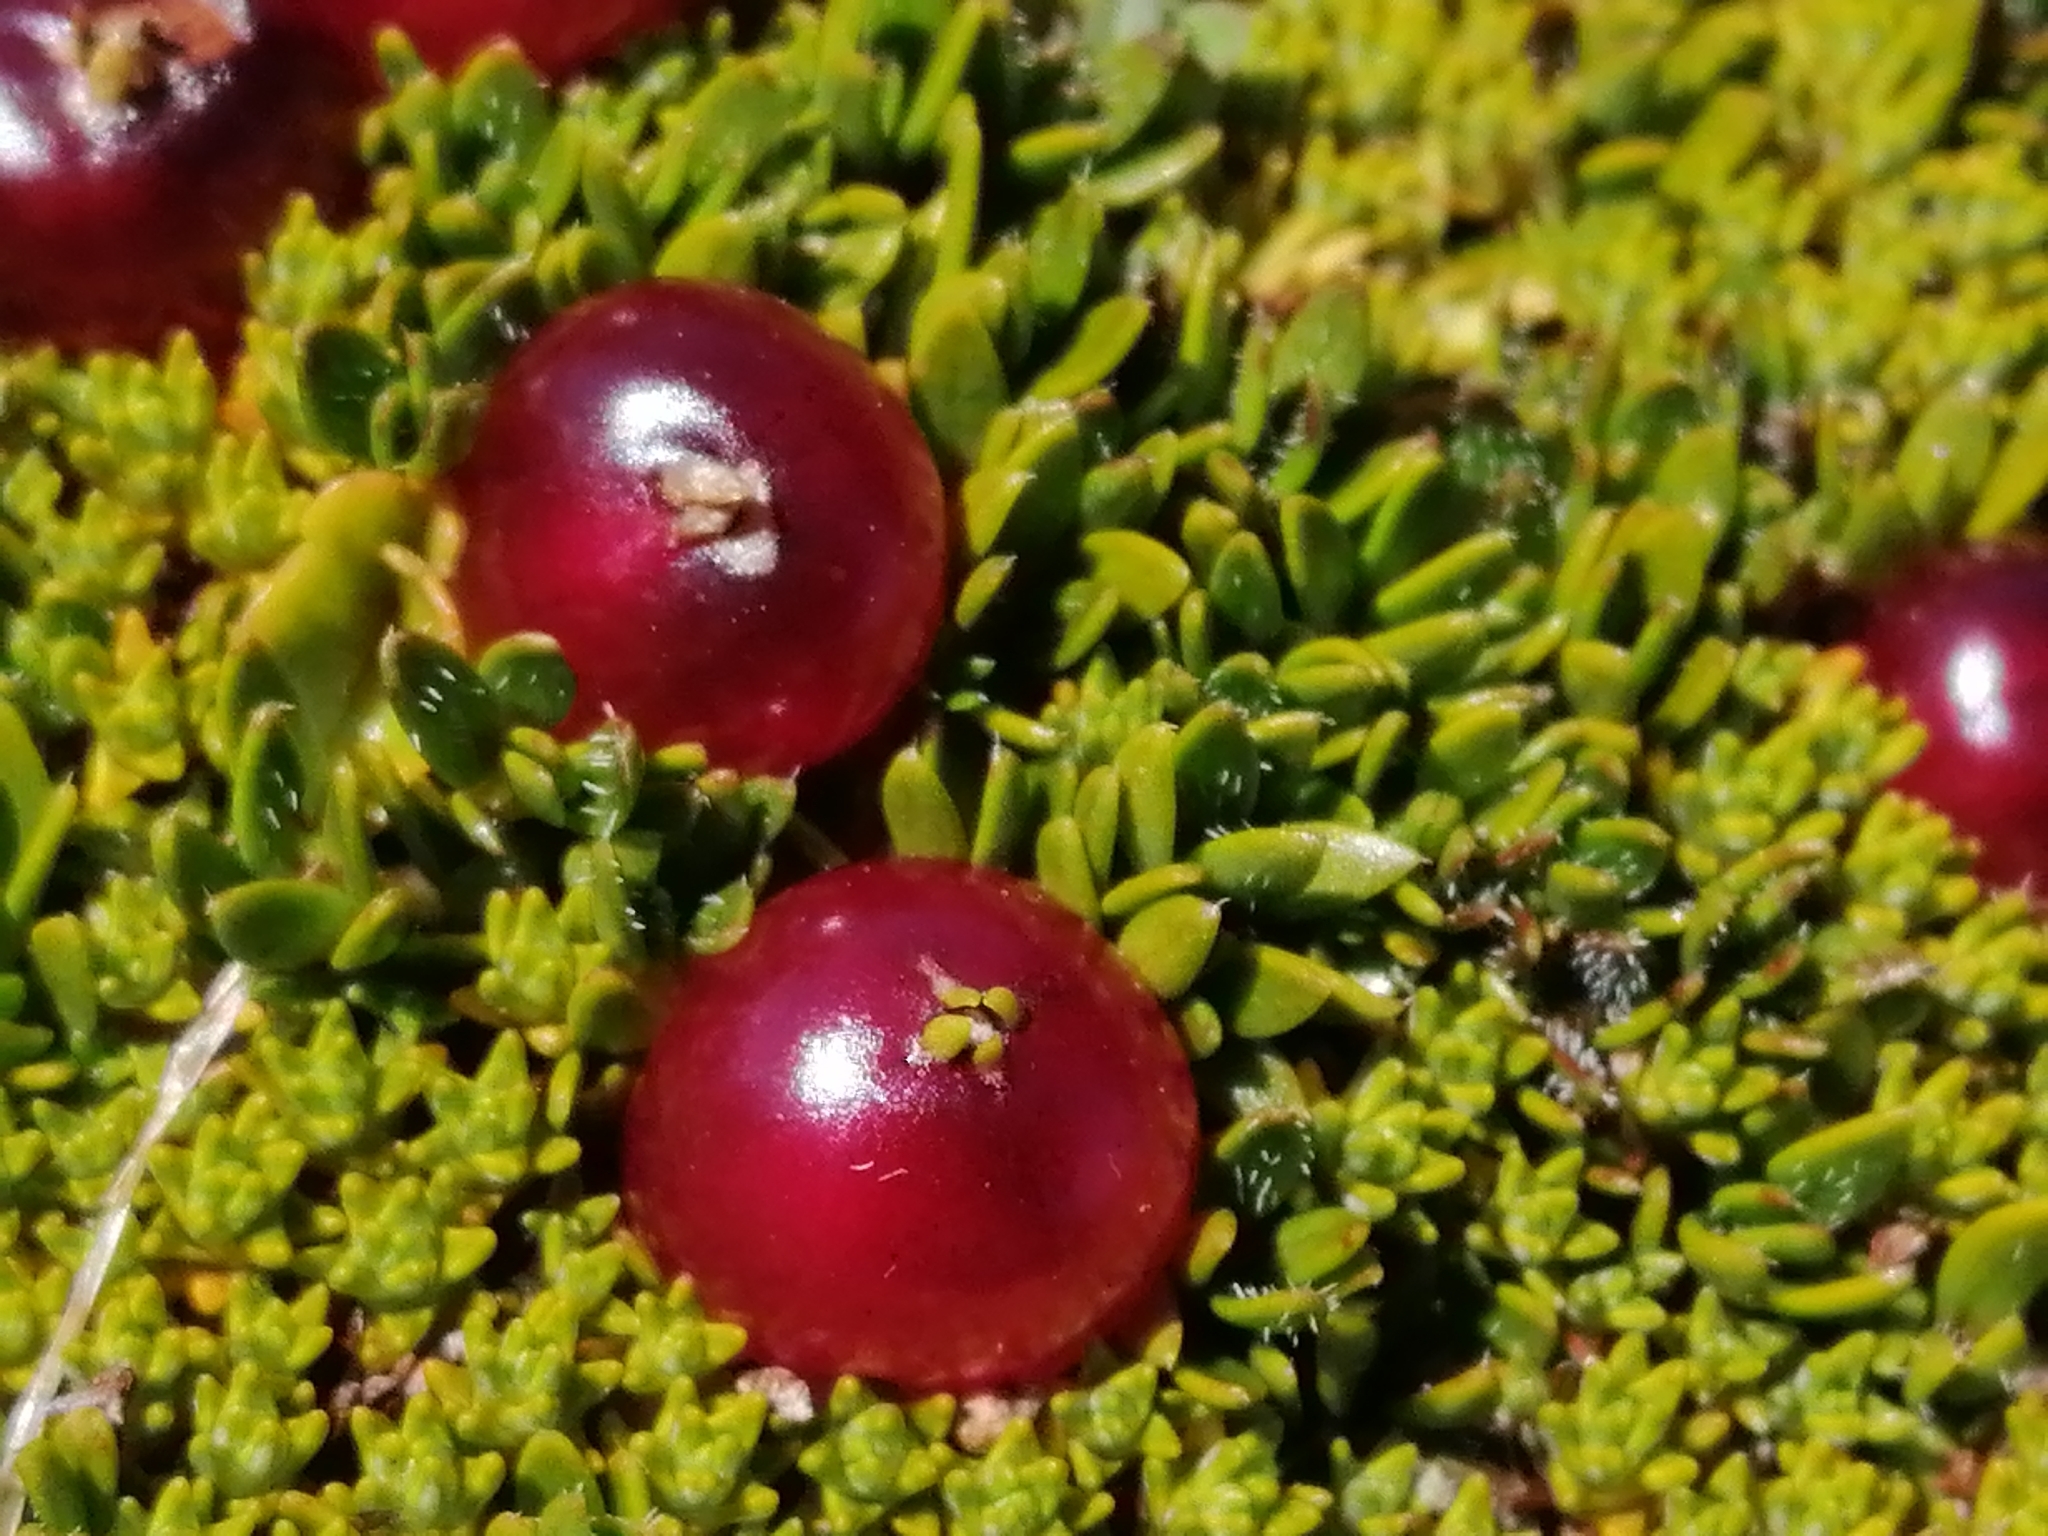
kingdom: Plantae
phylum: Tracheophyta
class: Magnoliopsida
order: Gentianales
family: Rubiaceae
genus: Coprosma
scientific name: Coprosma atropurpurea
